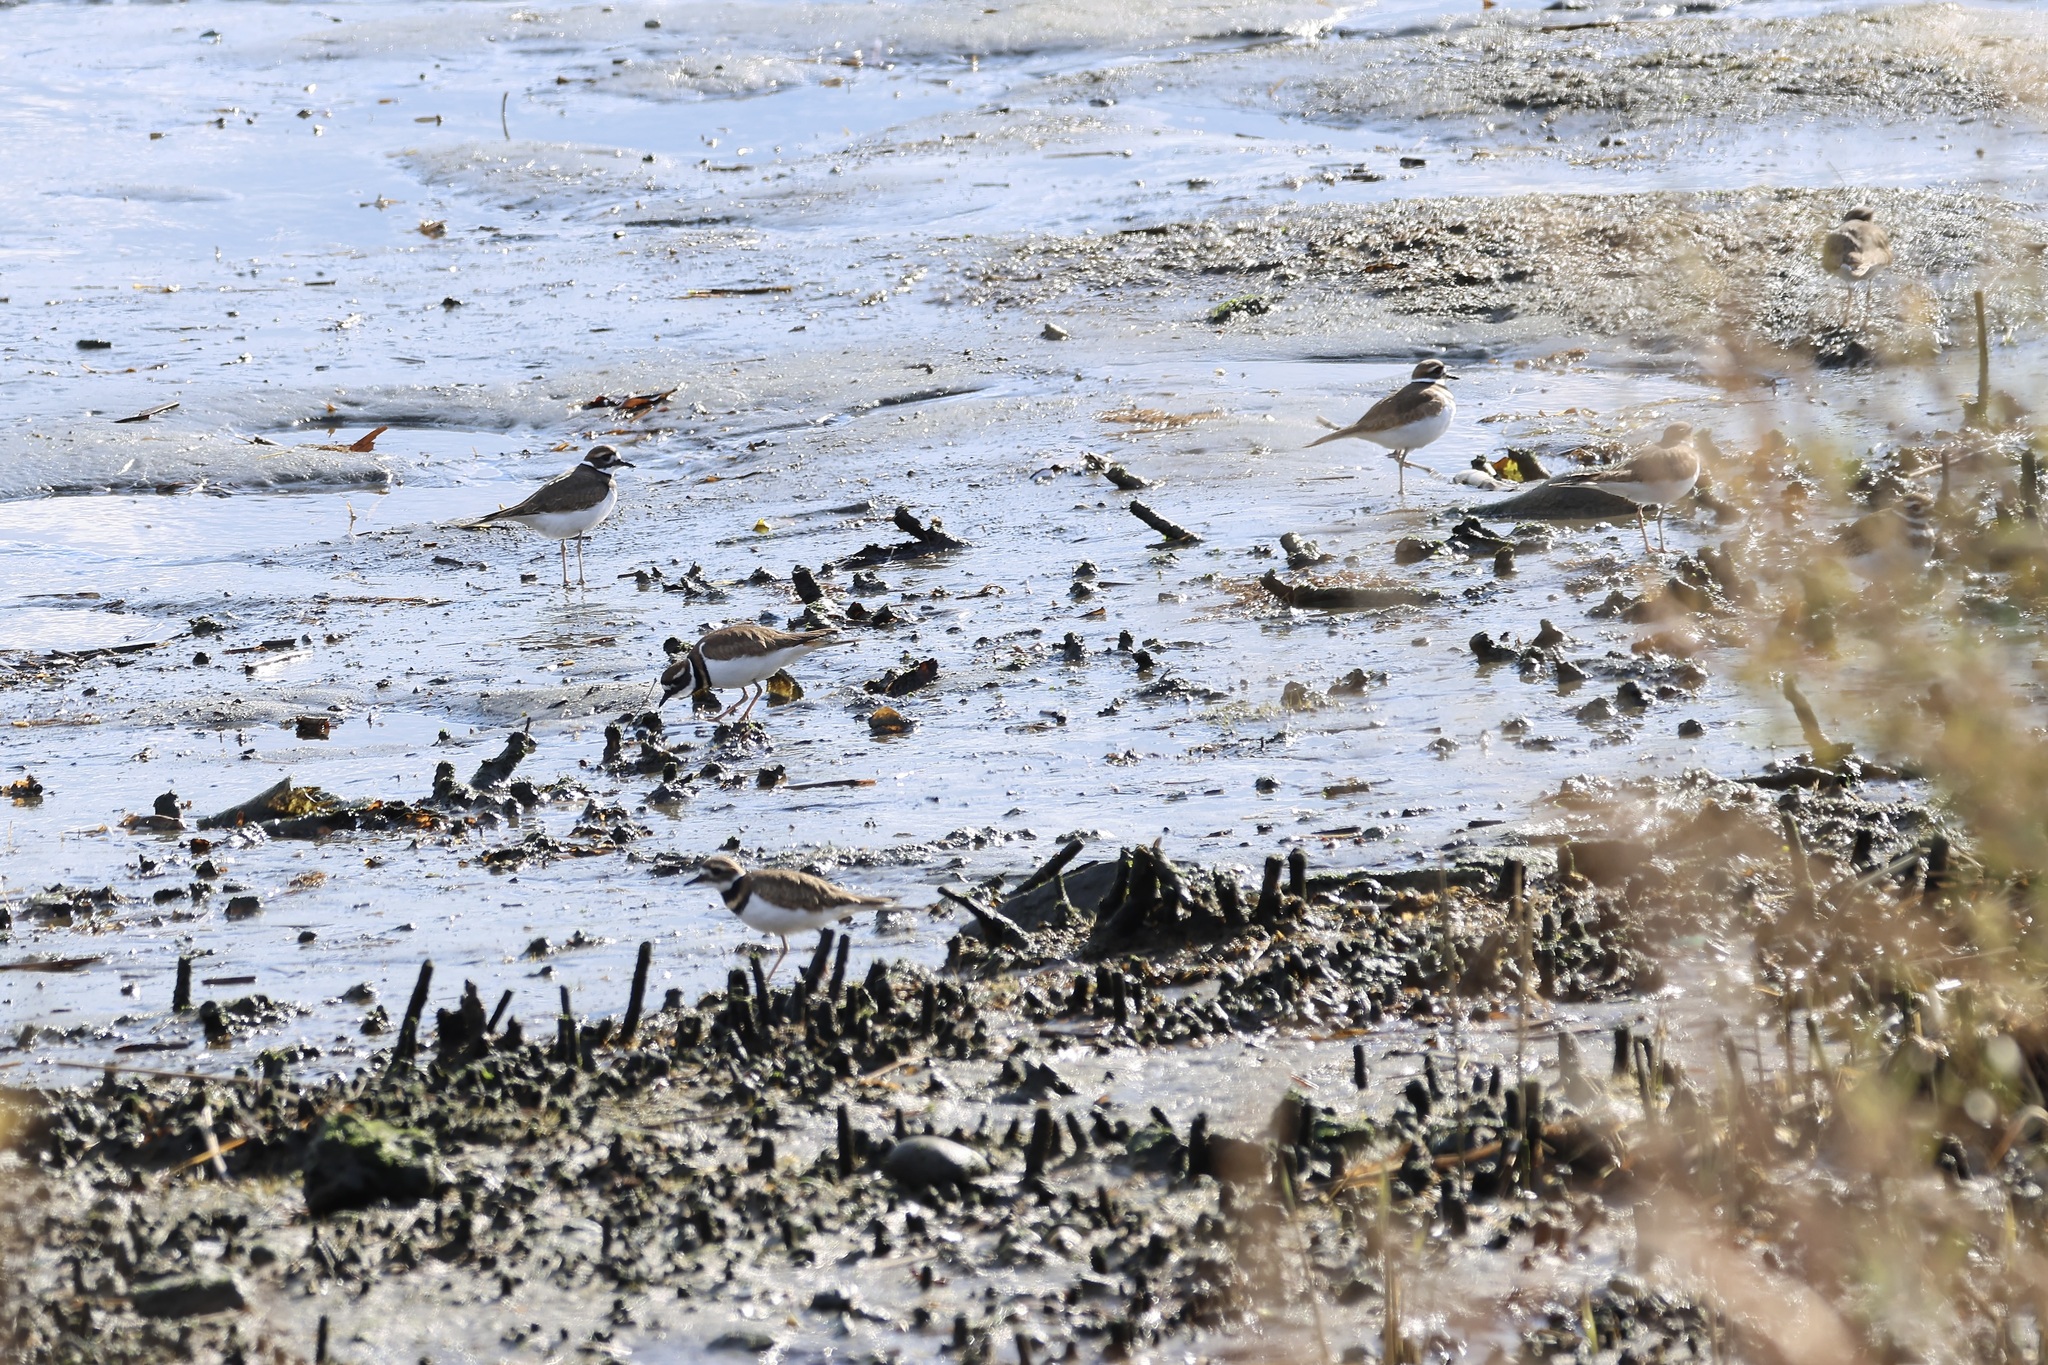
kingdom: Animalia
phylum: Chordata
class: Aves
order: Charadriiformes
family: Charadriidae
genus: Charadrius
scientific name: Charadrius vociferus
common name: Killdeer
